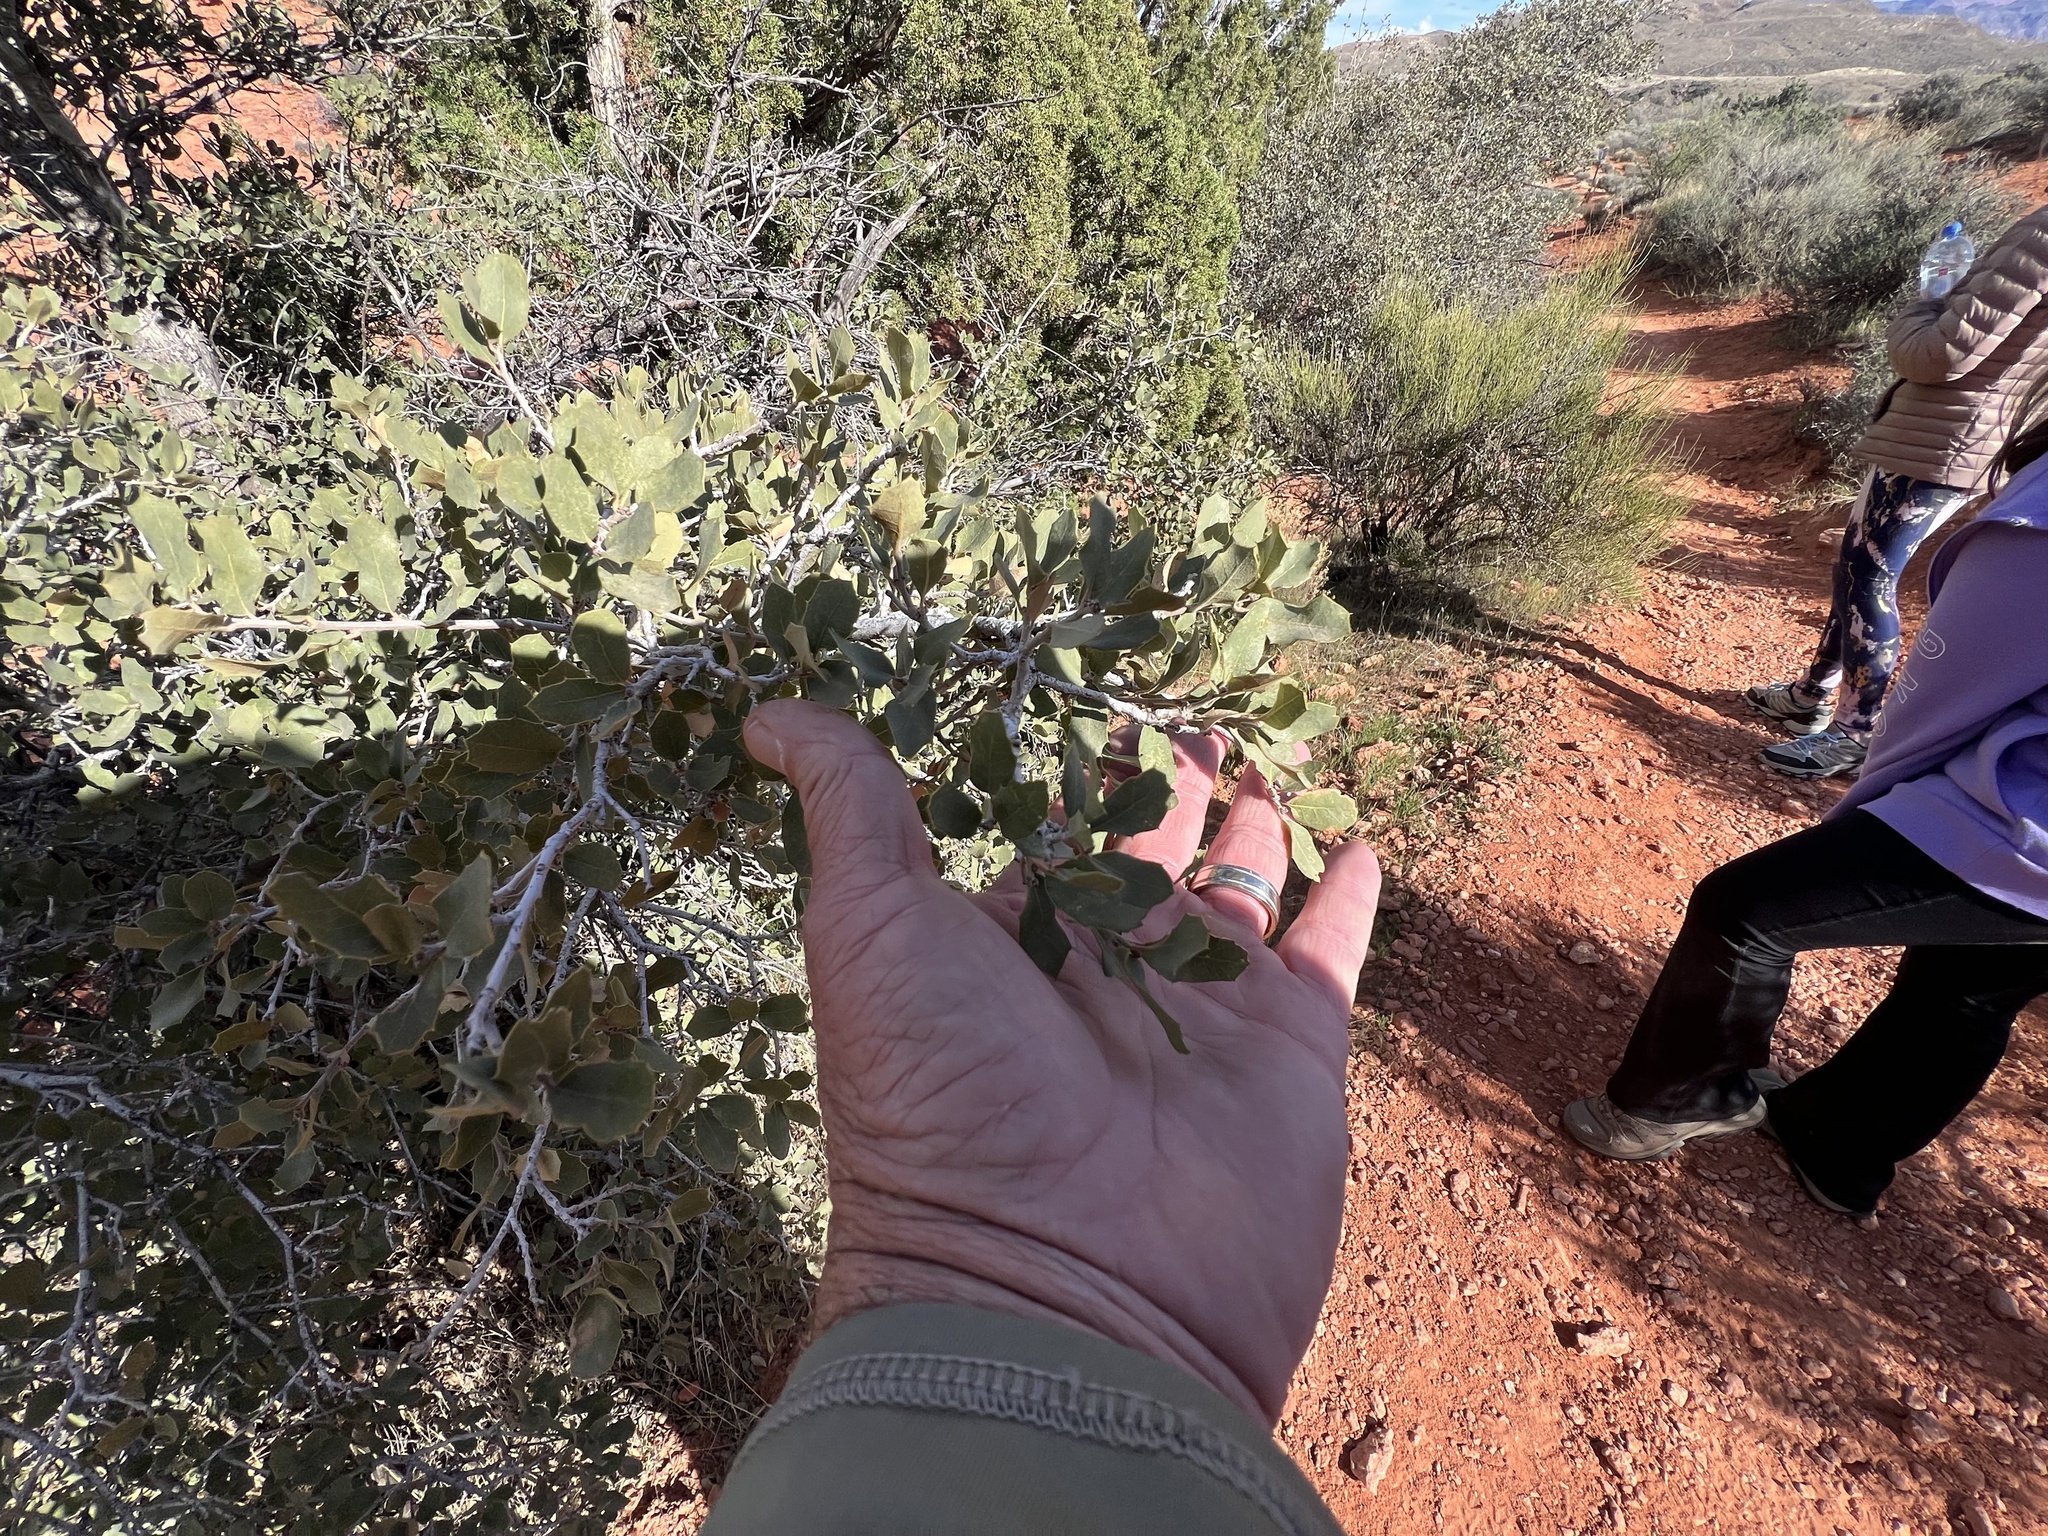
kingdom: Plantae
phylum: Tracheophyta
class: Magnoliopsida
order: Fagales
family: Fagaceae
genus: Quercus
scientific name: Quercus turbinella
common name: Sonoran scrub oak
